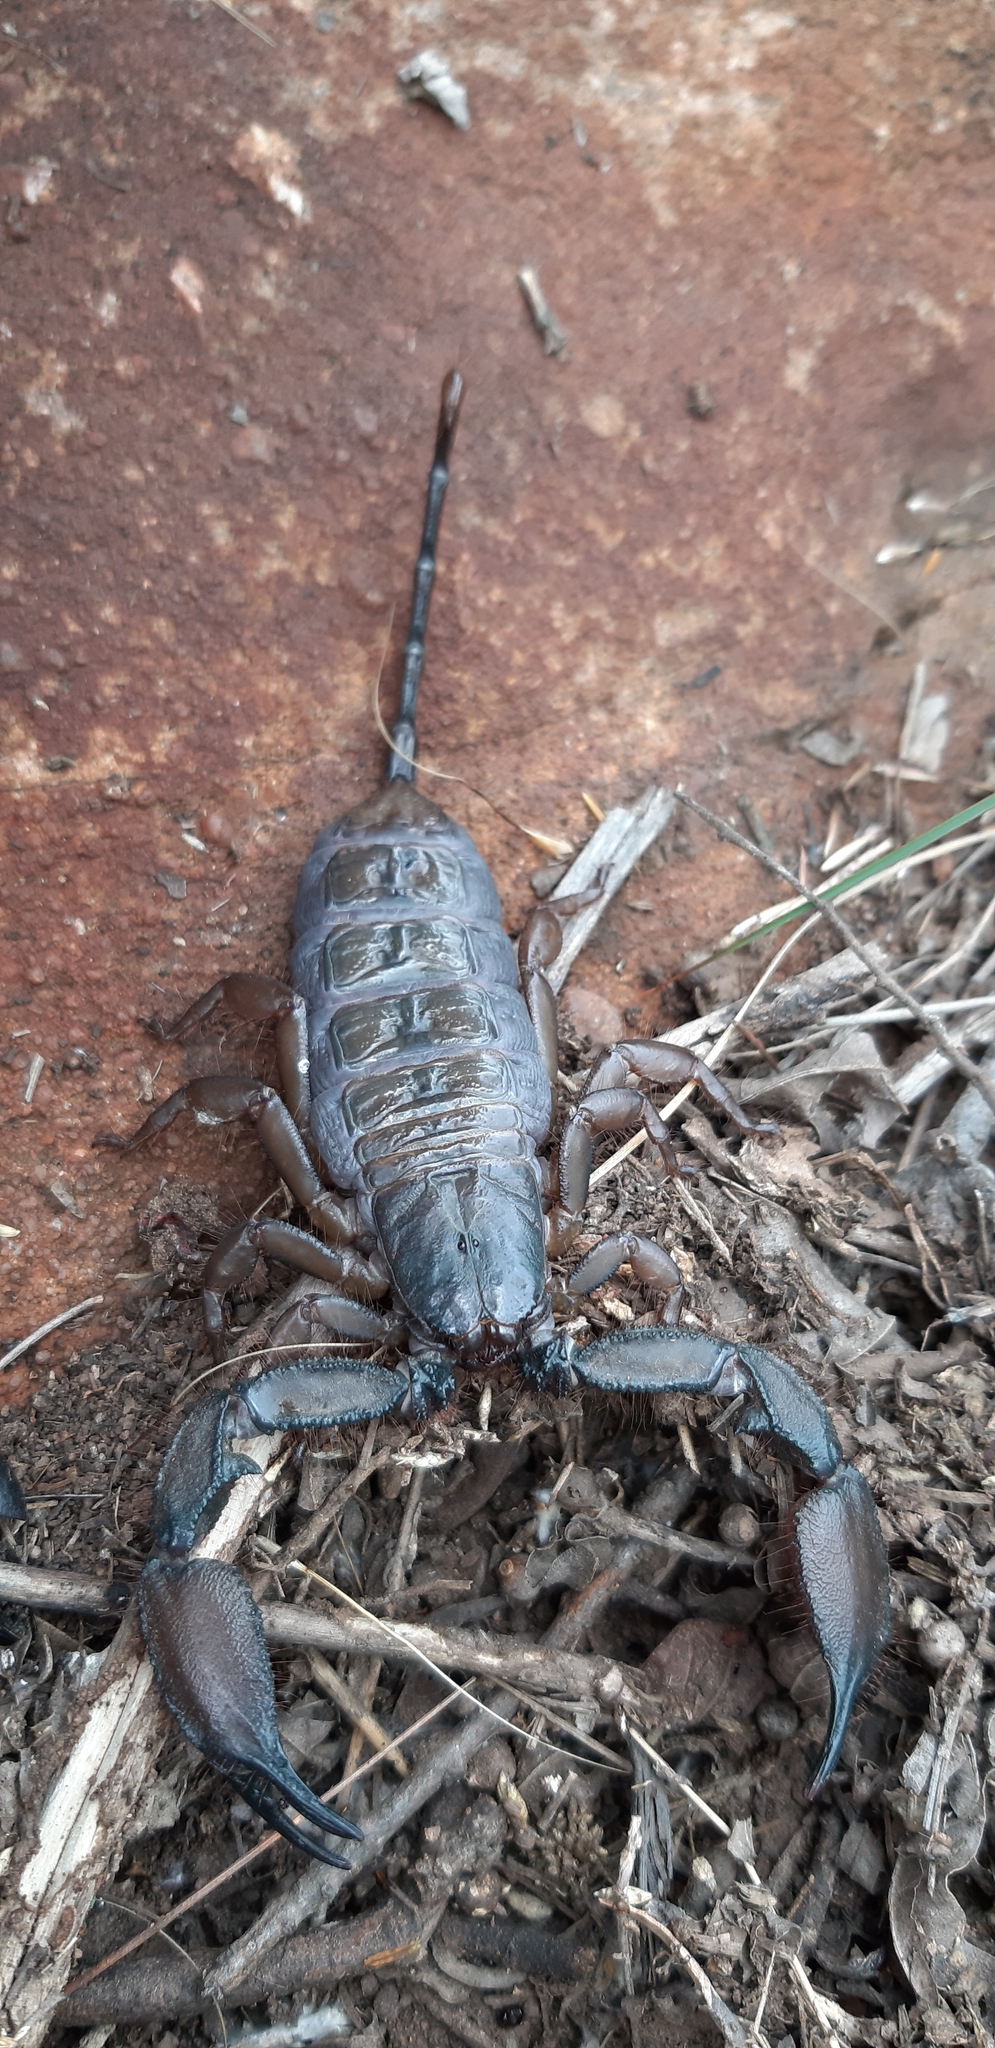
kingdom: Animalia
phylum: Arthropoda
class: Arachnida
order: Scorpiones
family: Hormuridae
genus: Hadogenes
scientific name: Hadogenes soutpansbergensis
